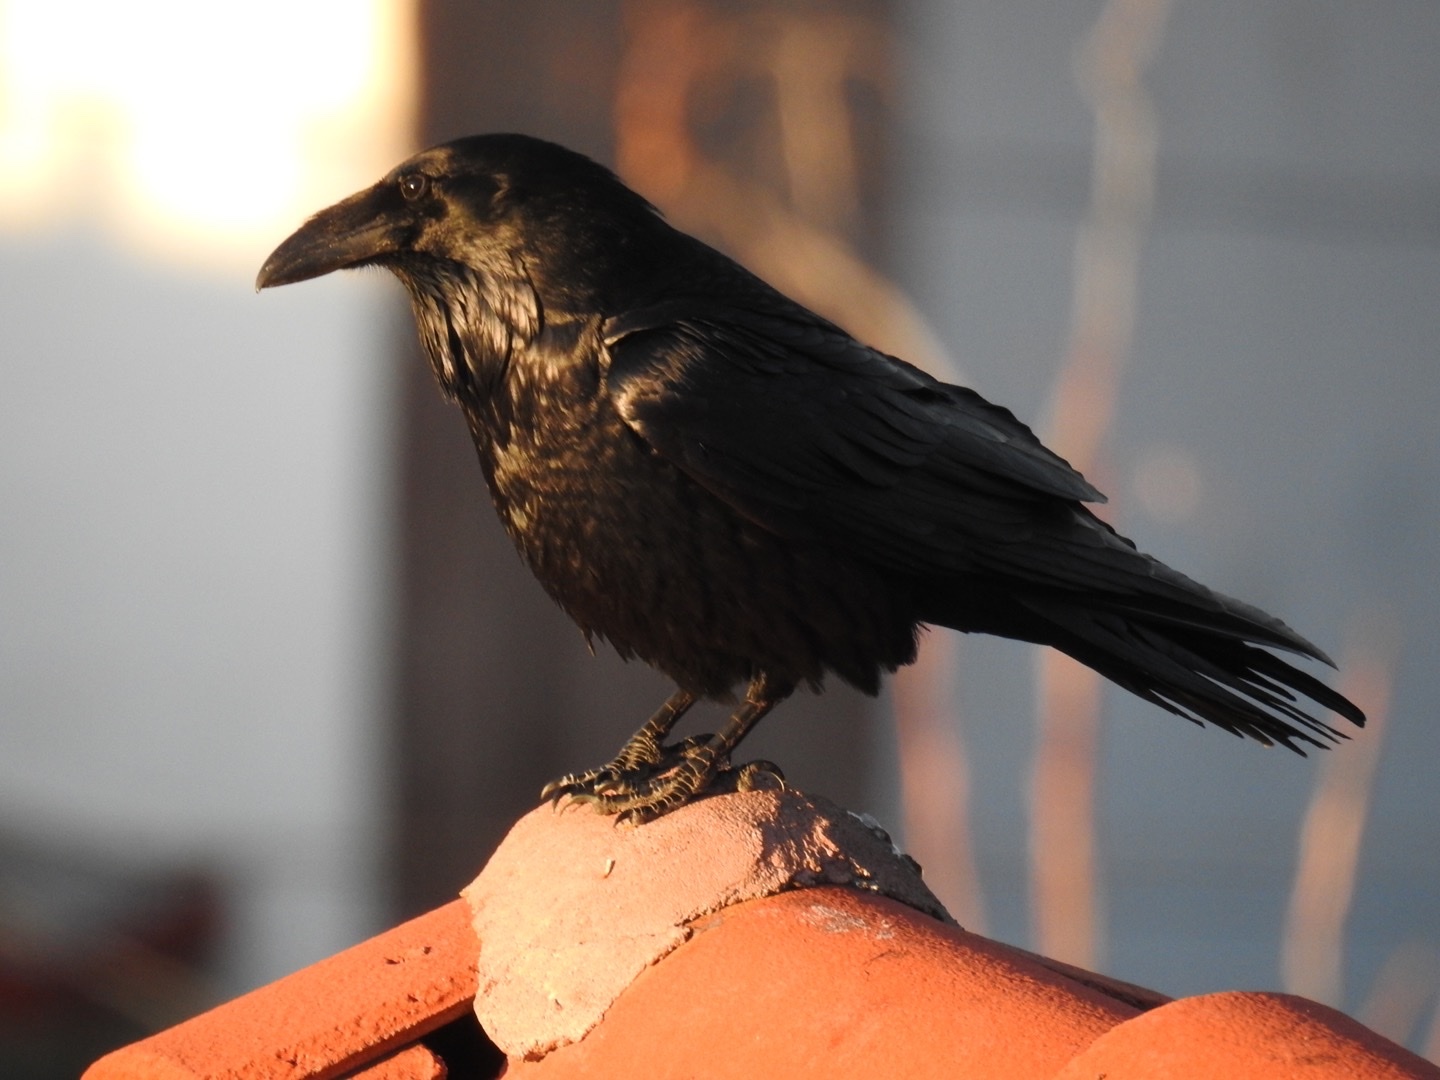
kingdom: Animalia
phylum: Chordata
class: Aves
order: Passeriformes
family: Corvidae
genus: Corvus
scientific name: Corvus corax
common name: Common raven
